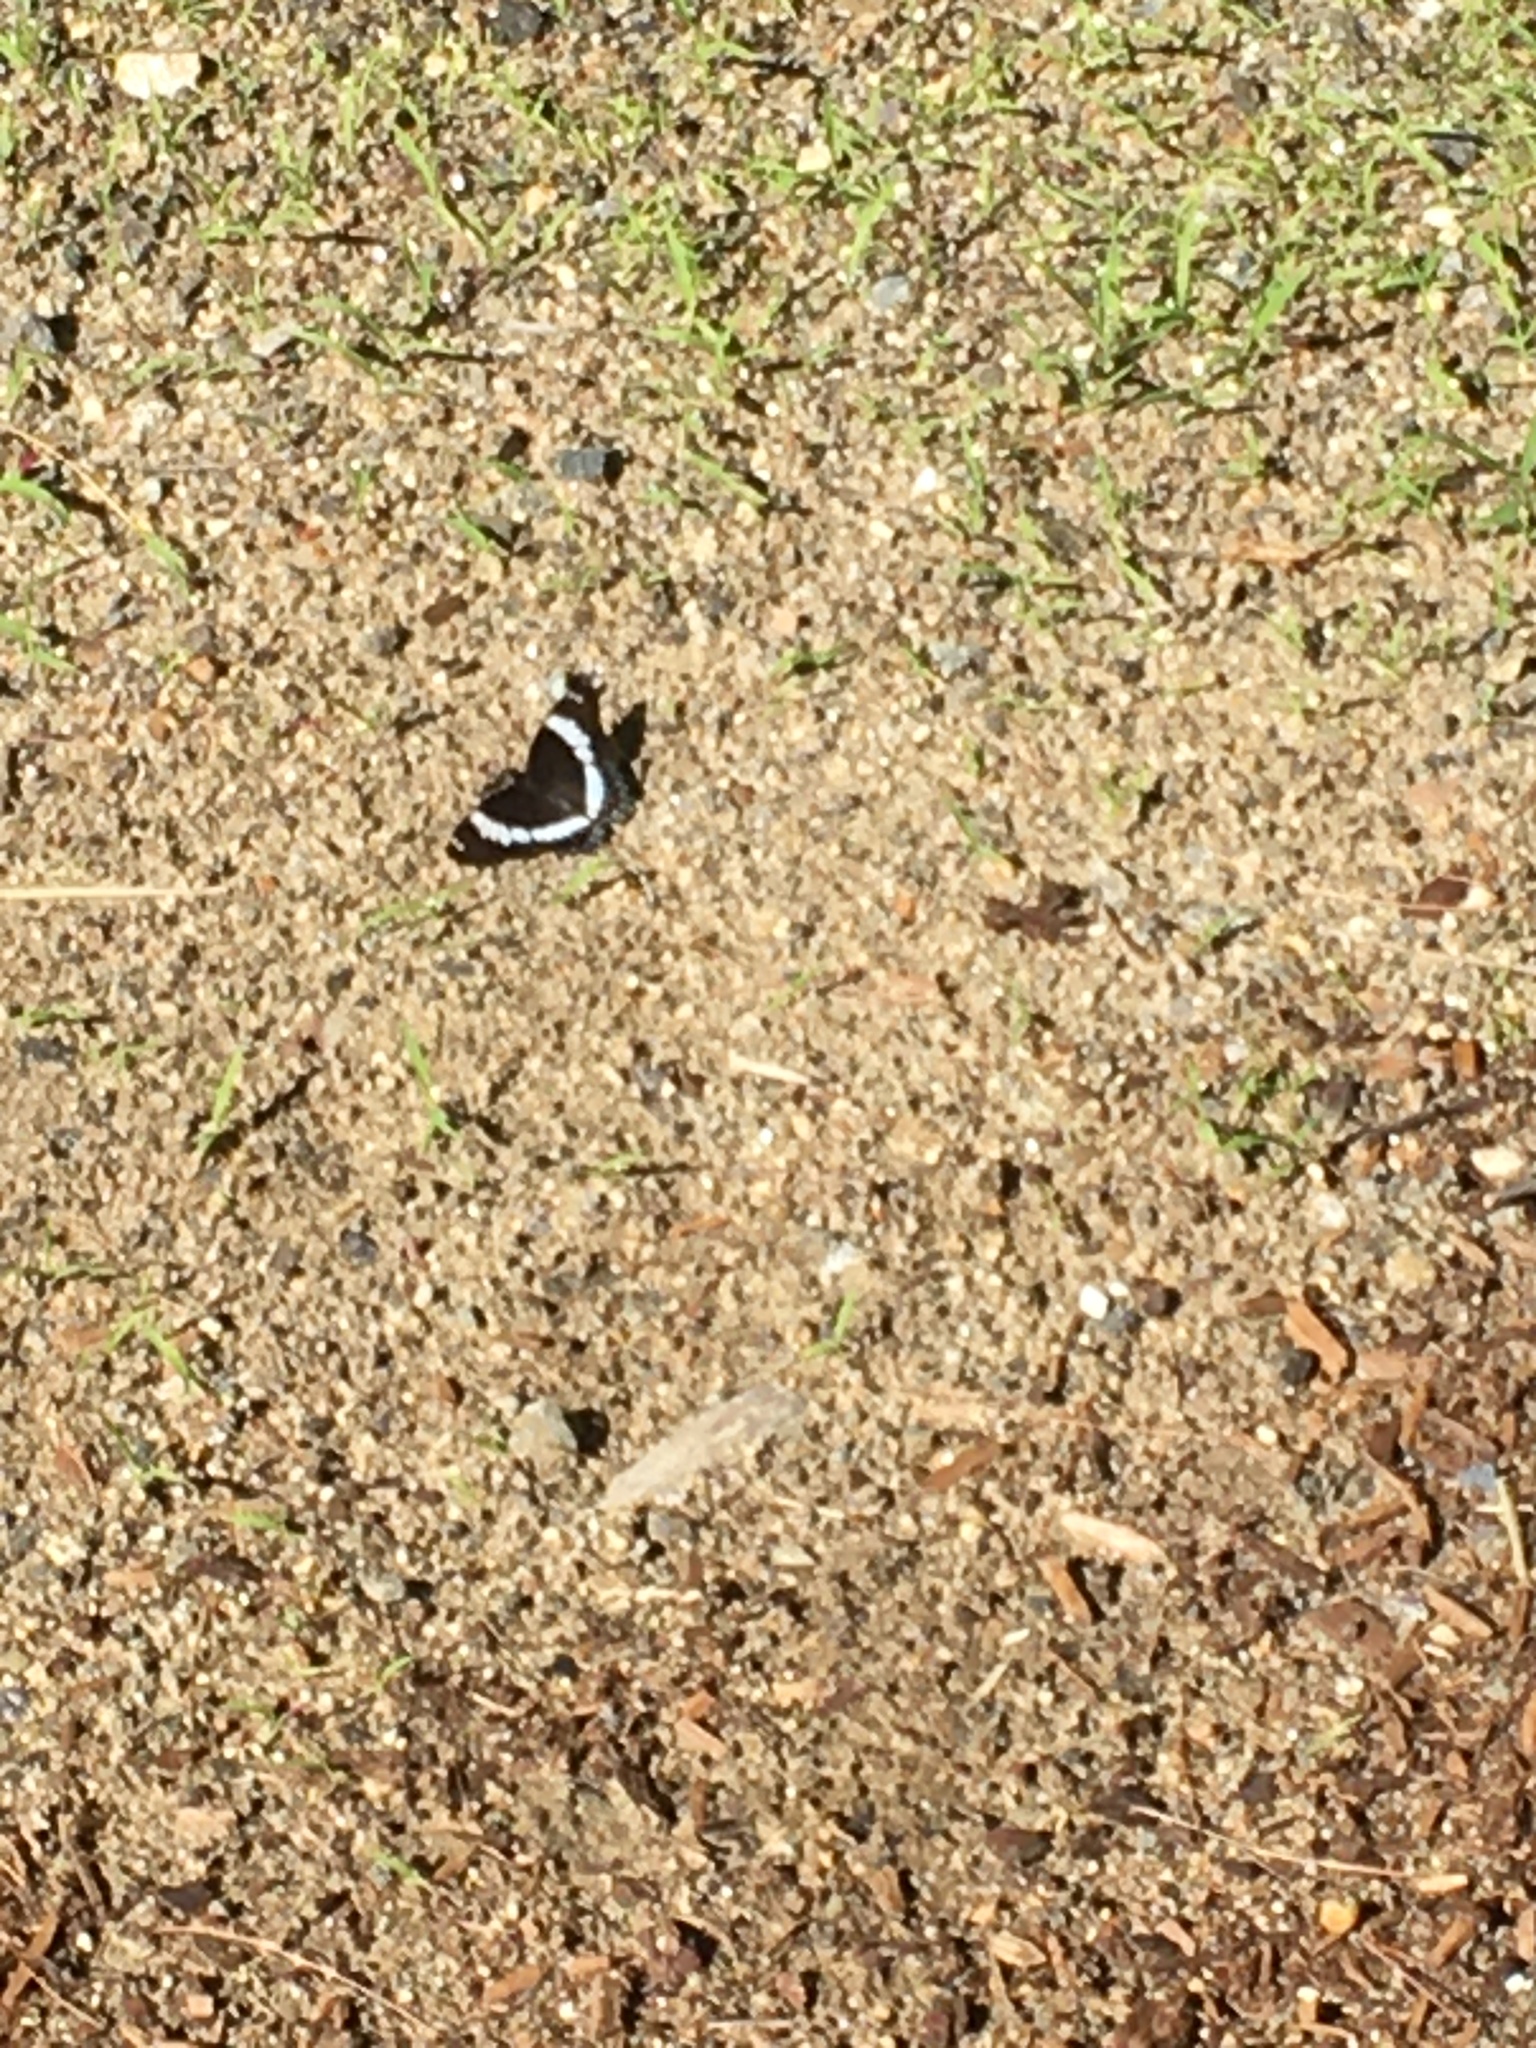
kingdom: Animalia
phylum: Arthropoda
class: Insecta
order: Lepidoptera
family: Nymphalidae
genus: Limenitis
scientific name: Limenitis arthemis
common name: Red-spotted admiral
